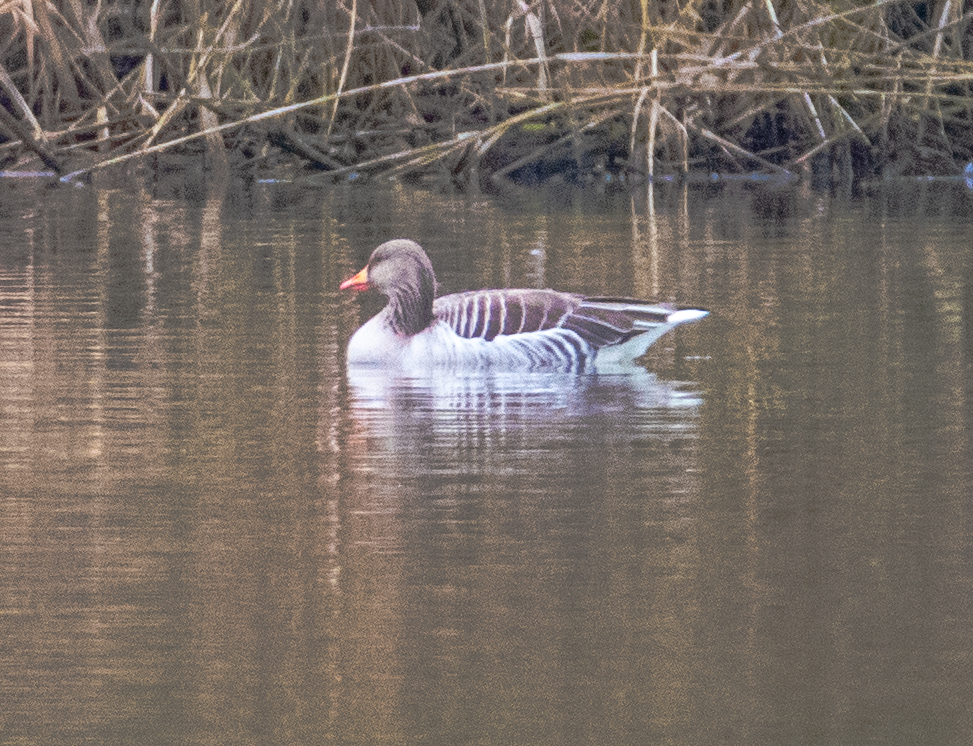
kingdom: Animalia
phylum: Chordata
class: Aves
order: Anseriformes
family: Anatidae
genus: Anser
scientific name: Anser anser
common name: Greylag goose
